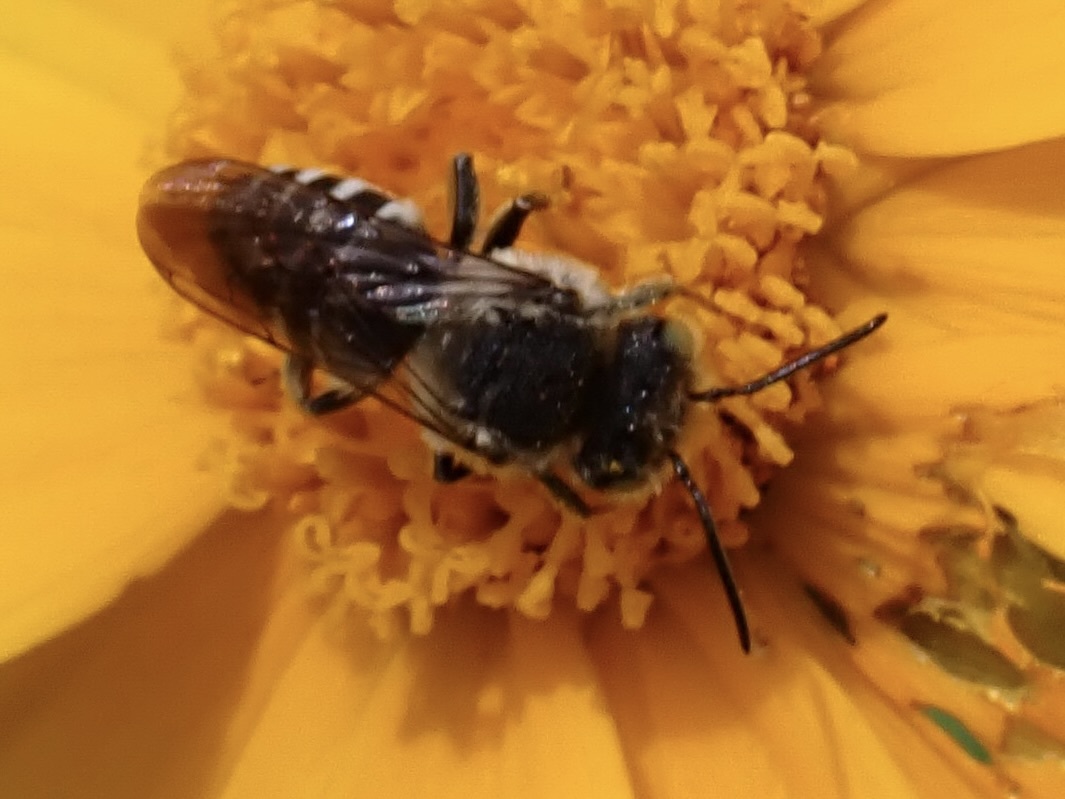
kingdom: Animalia
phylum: Arthropoda
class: Insecta
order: Hymenoptera
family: Megachilidae
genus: Coelioxys
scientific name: Coelioxys rufitarsis
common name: Red-footed sharptail
